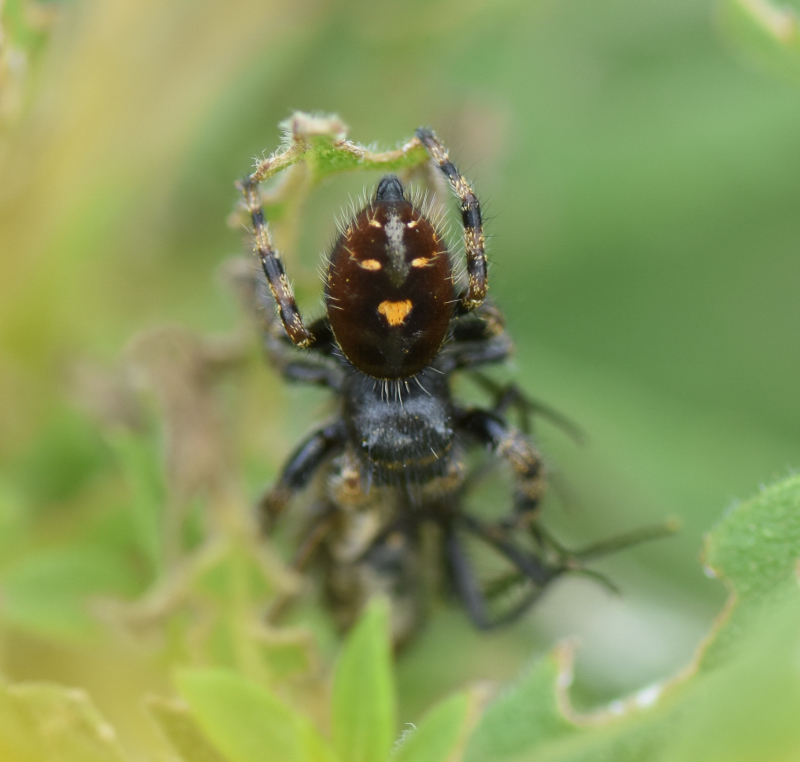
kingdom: Animalia
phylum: Arthropoda
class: Arachnida
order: Araneae
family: Salticidae
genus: Phidippus
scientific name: Phidippus audax
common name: Bold jumper
